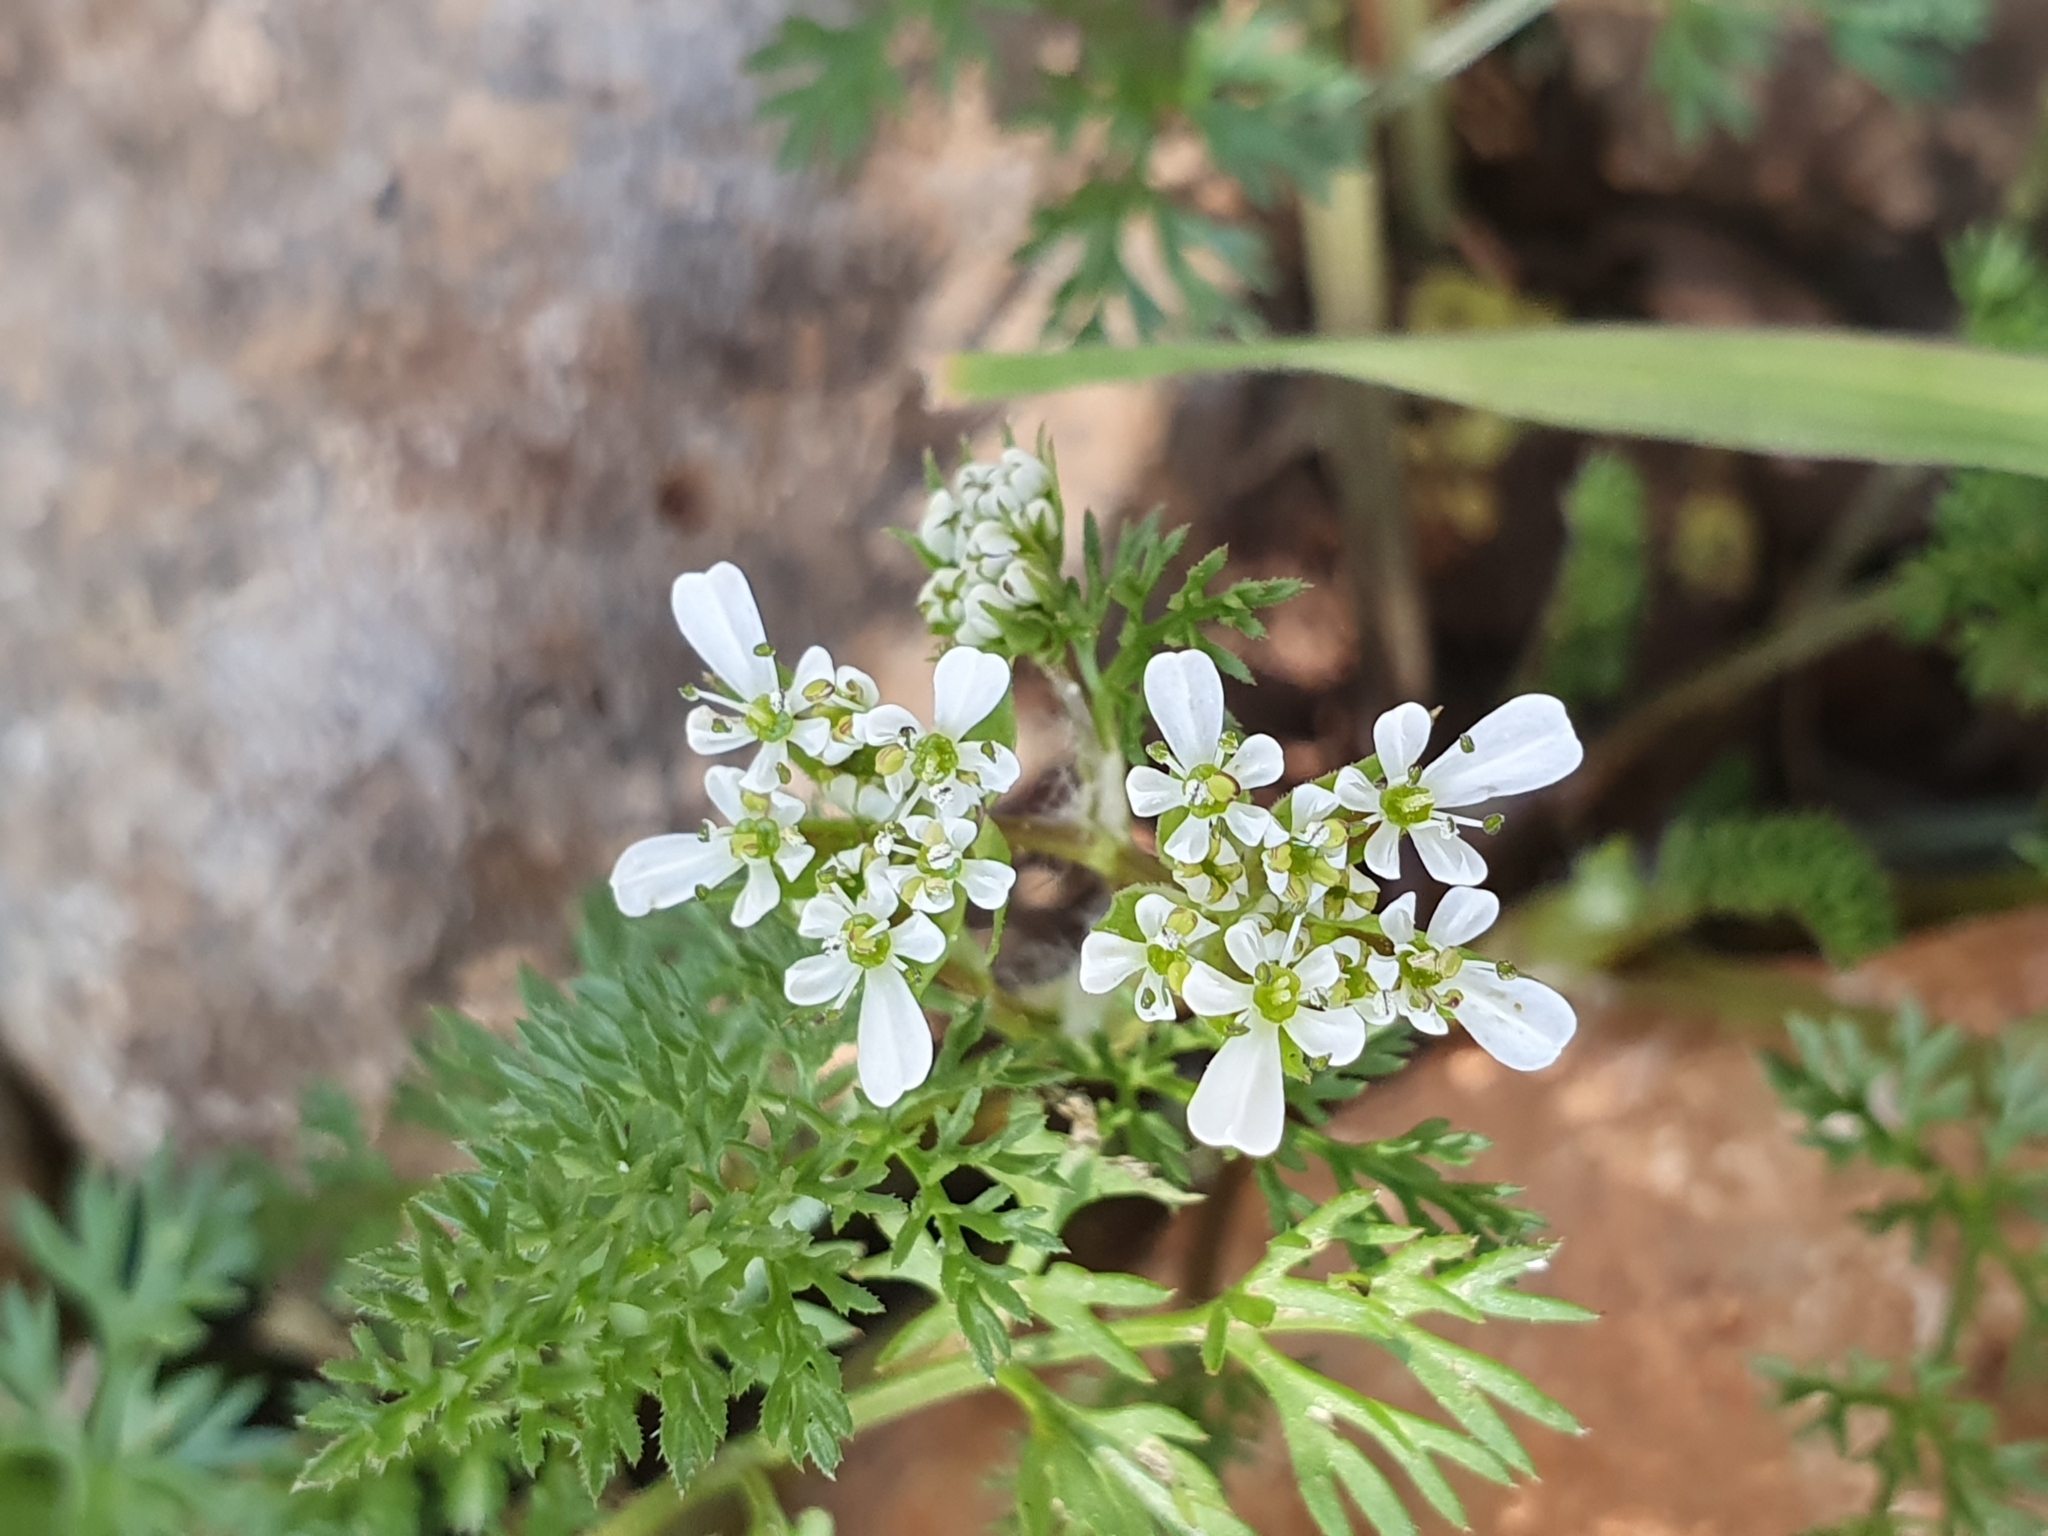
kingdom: Plantae
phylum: Tracheophyta
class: Magnoliopsida
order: Apiales
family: Apiaceae
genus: Scandix
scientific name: Scandix pecten-veneris
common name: Shepherd's-needle
